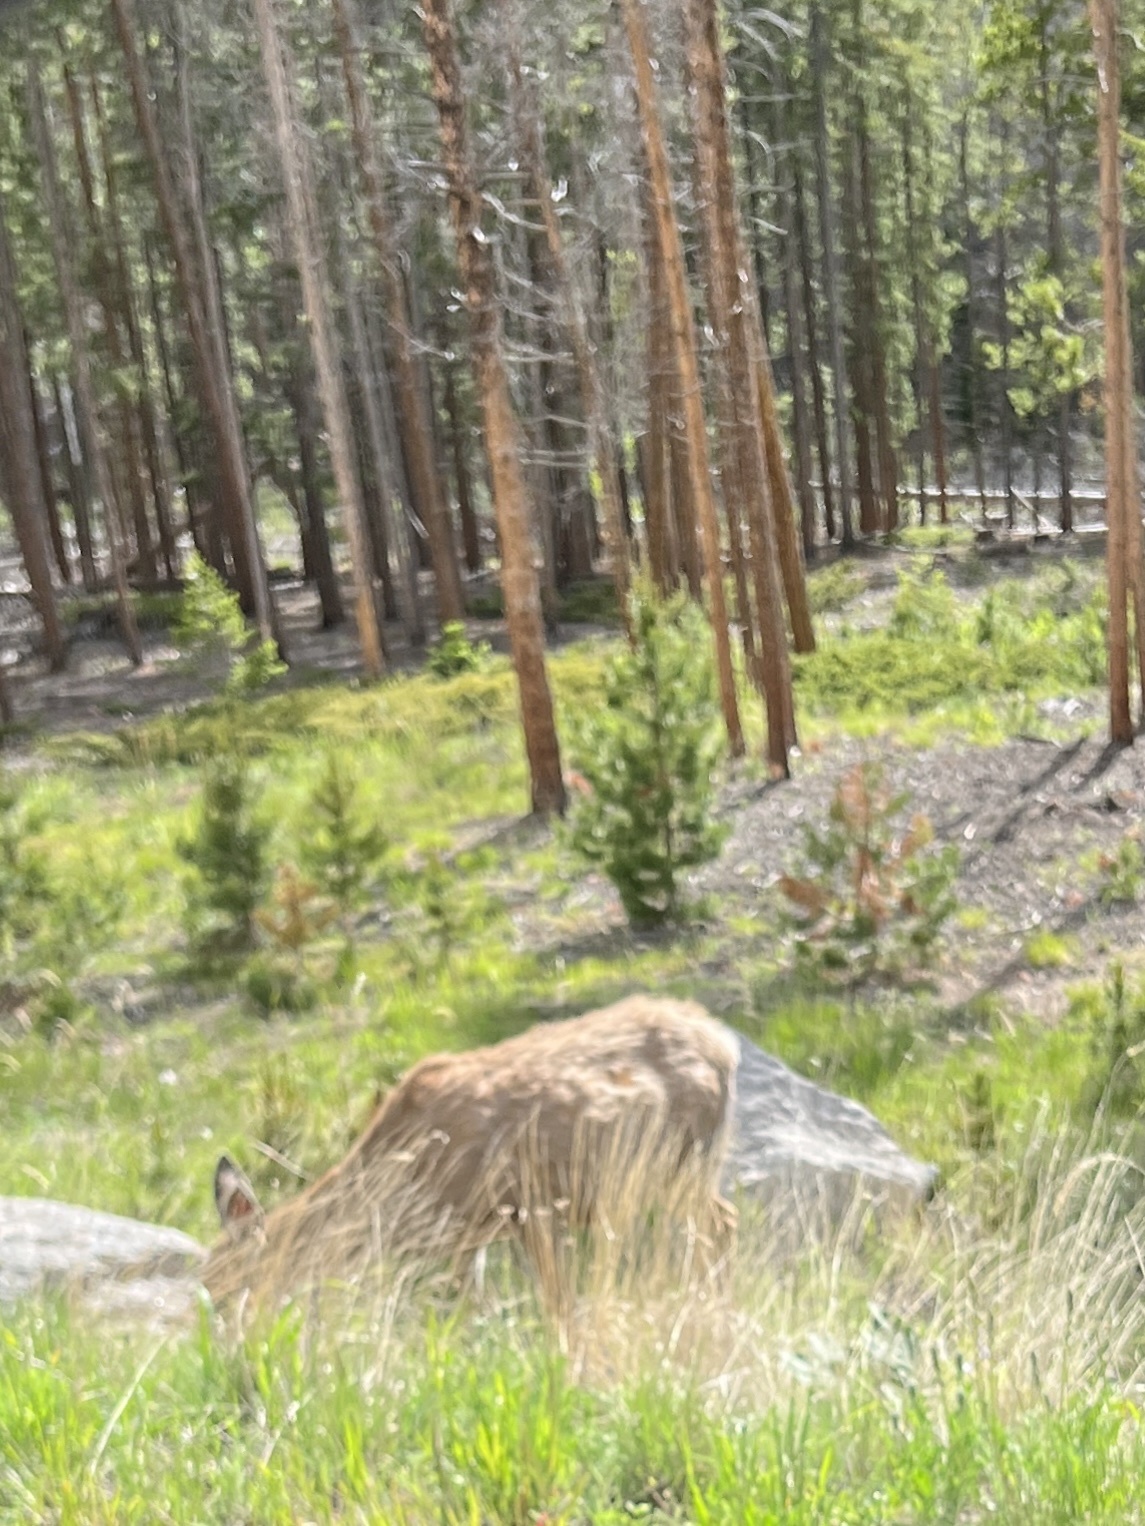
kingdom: Animalia
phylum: Chordata
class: Mammalia
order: Artiodactyla
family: Cervidae
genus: Odocoileus
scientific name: Odocoileus hemionus
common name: Mule deer
